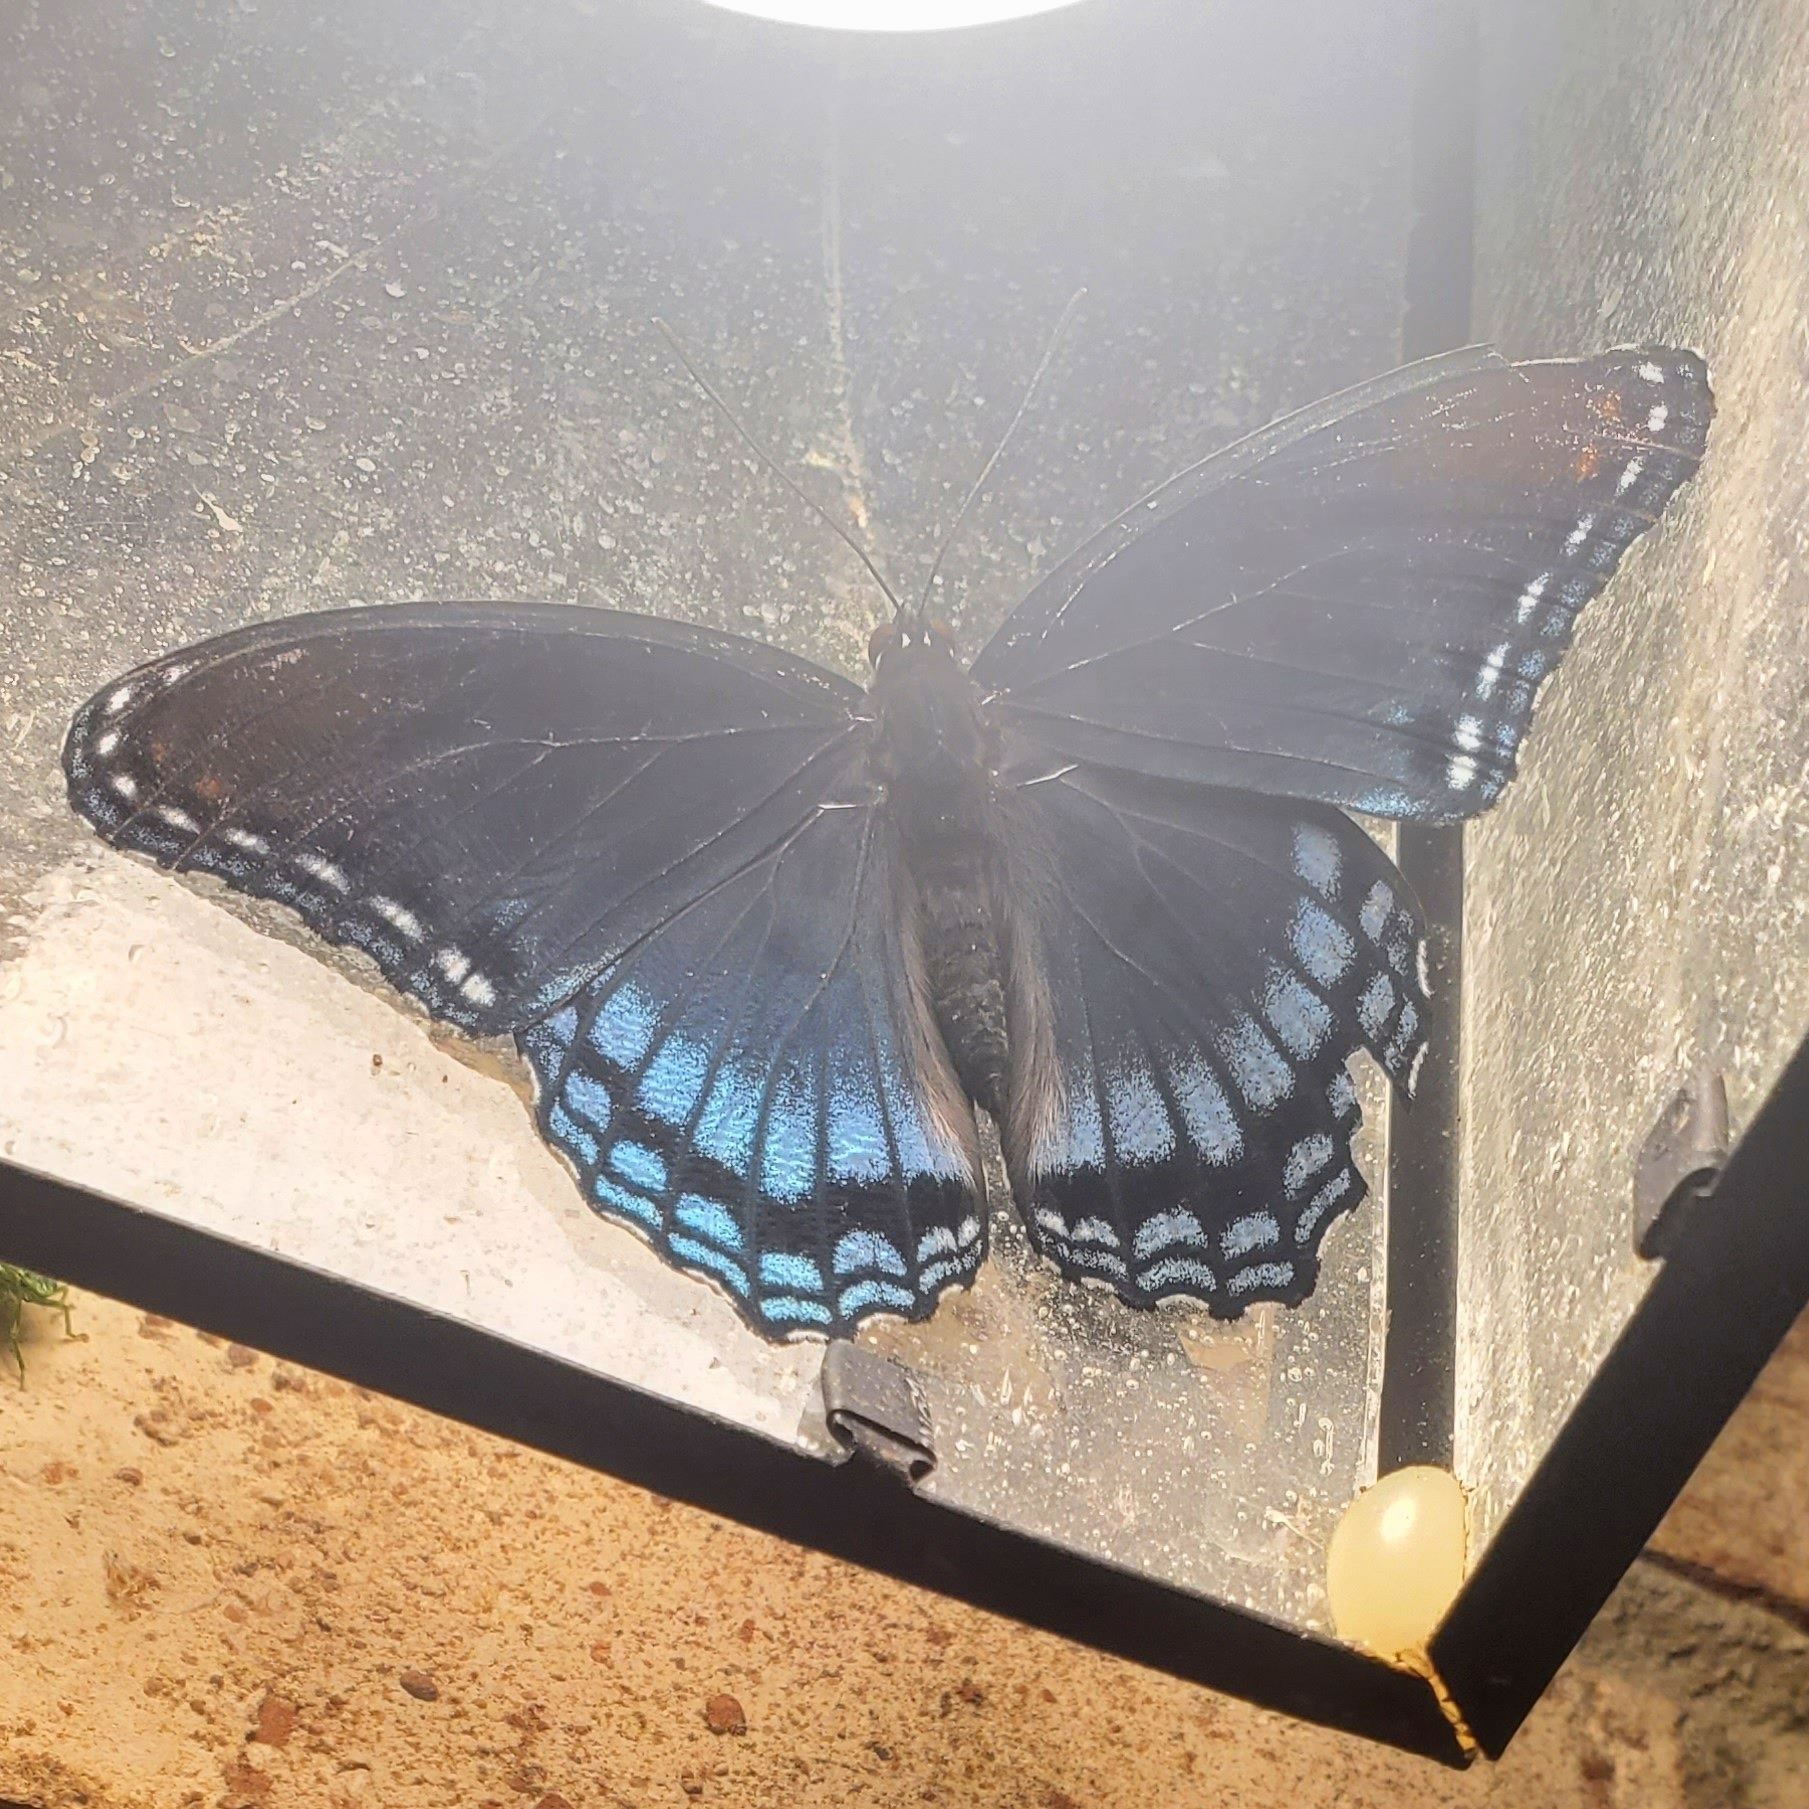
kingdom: Animalia
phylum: Arthropoda
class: Insecta
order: Lepidoptera
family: Nymphalidae
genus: Limenitis
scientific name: Limenitis astyanax
